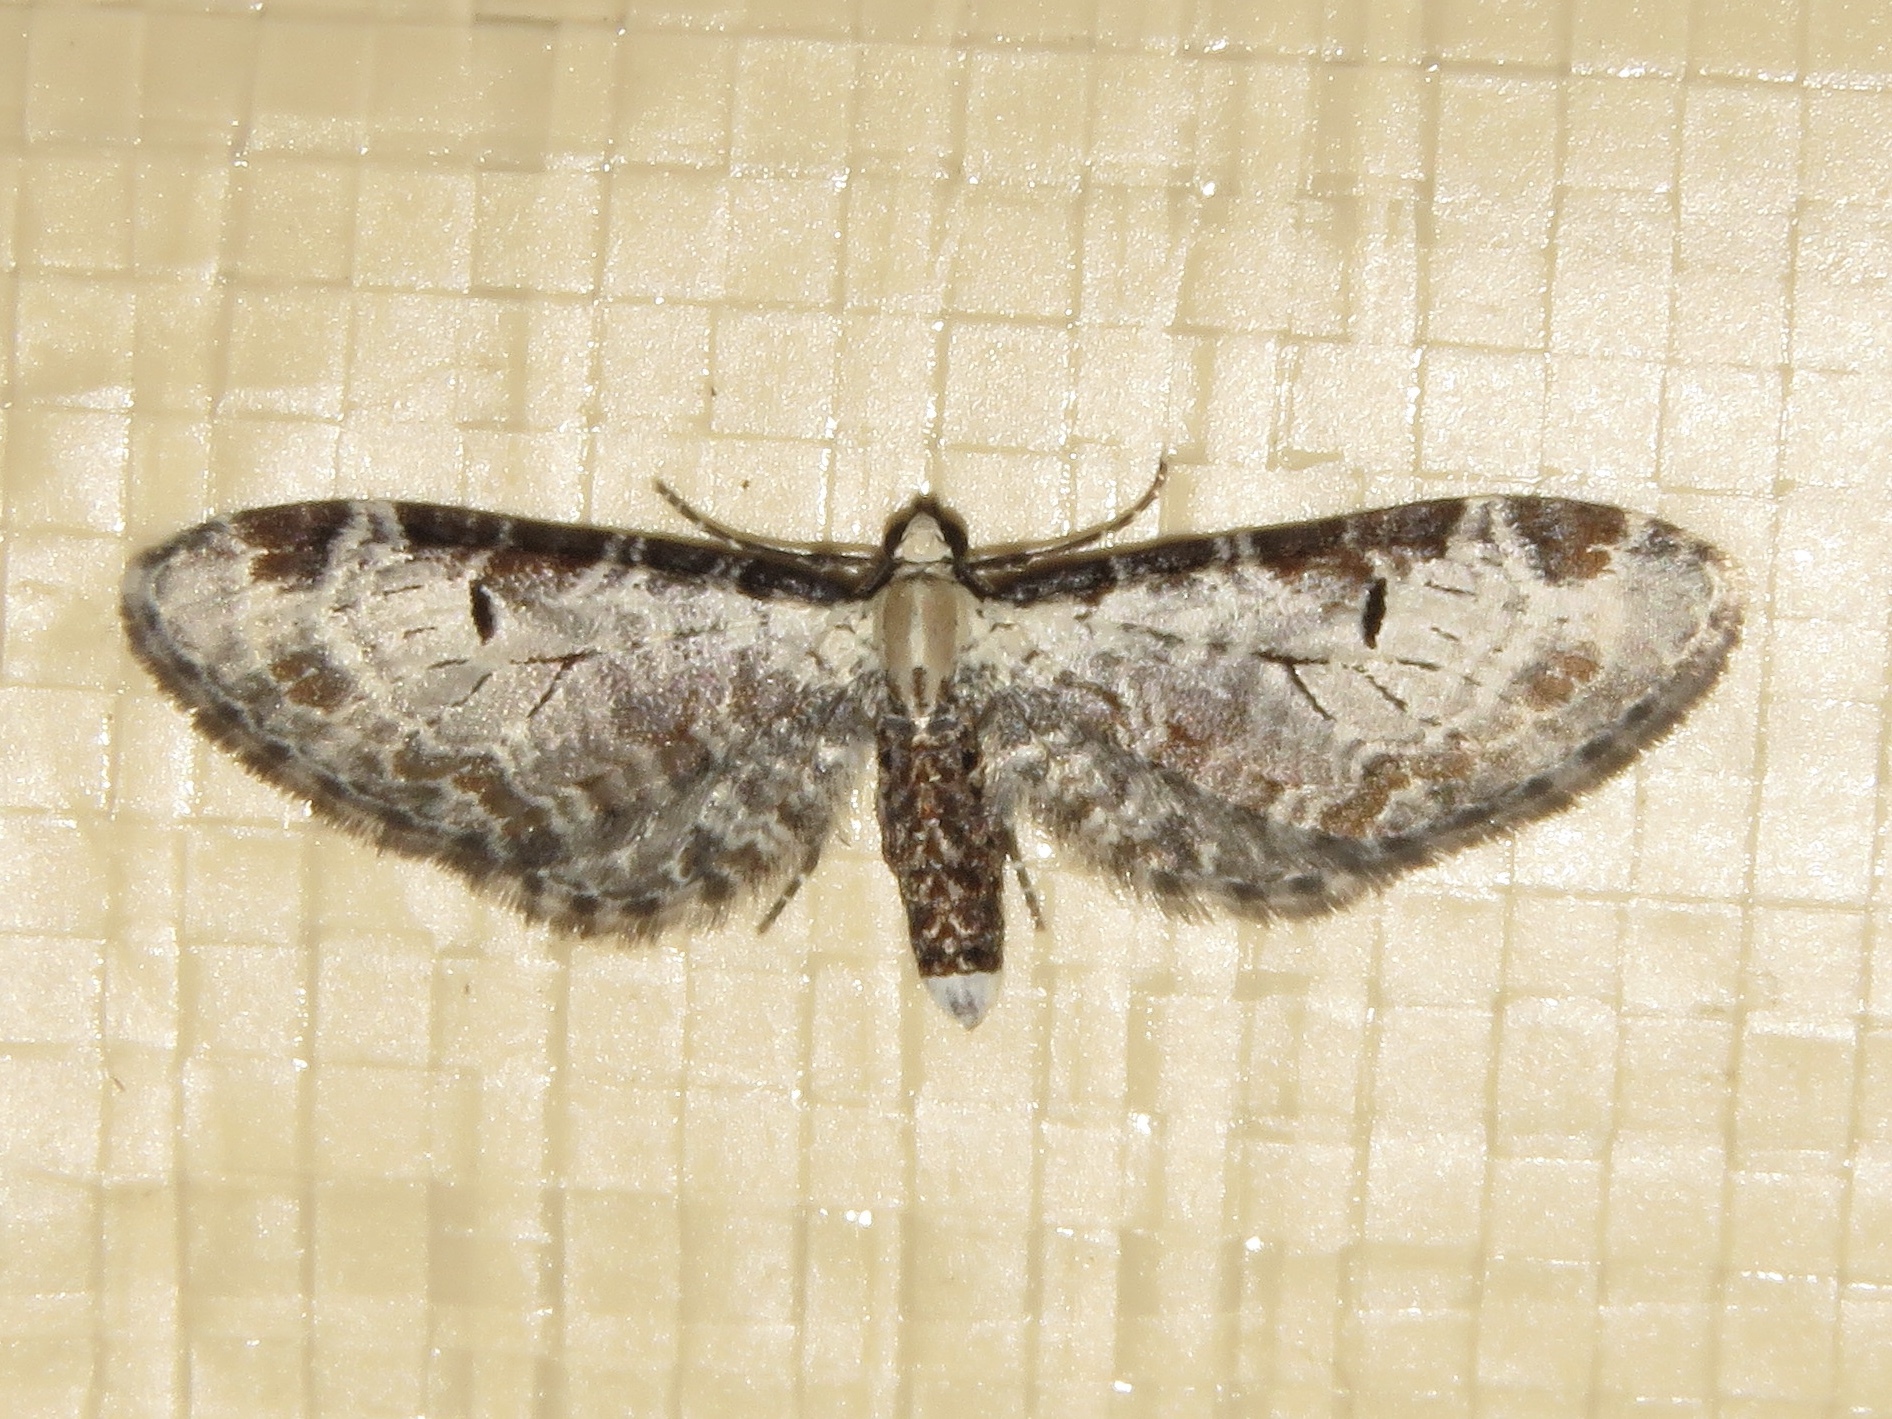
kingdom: Animalia
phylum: Arthropoda
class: Insecta
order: Lepidoptera
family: Geometridae
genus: Eupithecia
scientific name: Eupithecia ravocostaliata
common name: Great varigated pug
